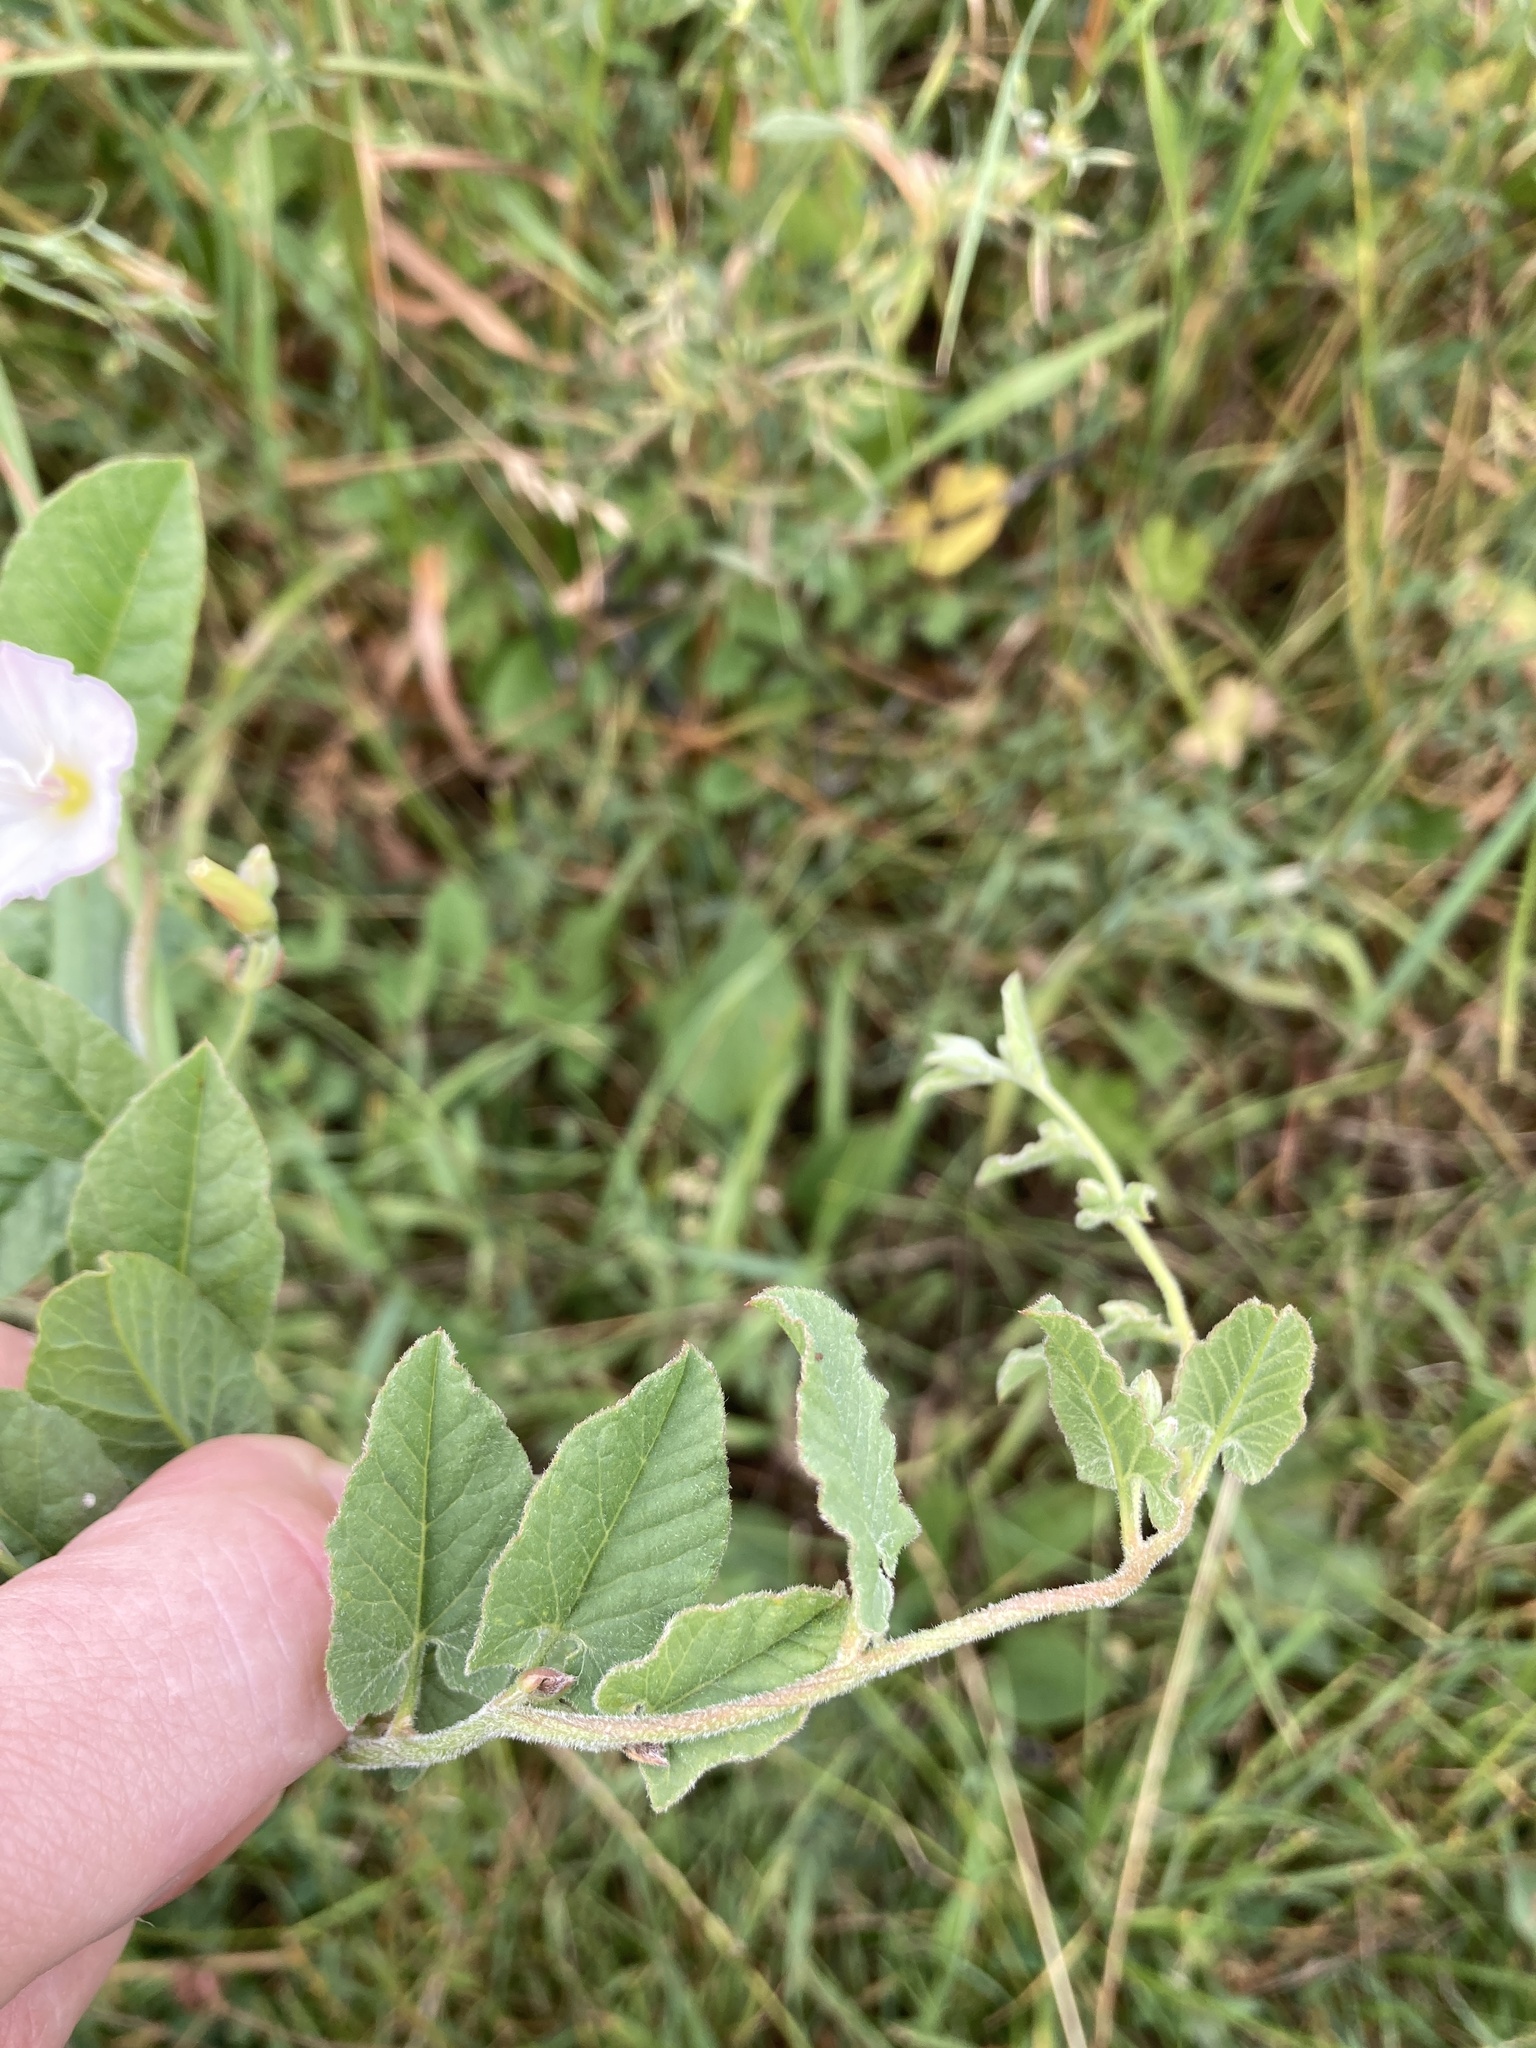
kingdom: Plantae
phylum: Tracheophyta
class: Magnoliopsida
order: Solanales
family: Convolvulaceae
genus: Convolvulus
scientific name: Convolvulus arvensis
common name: Field bindweed
